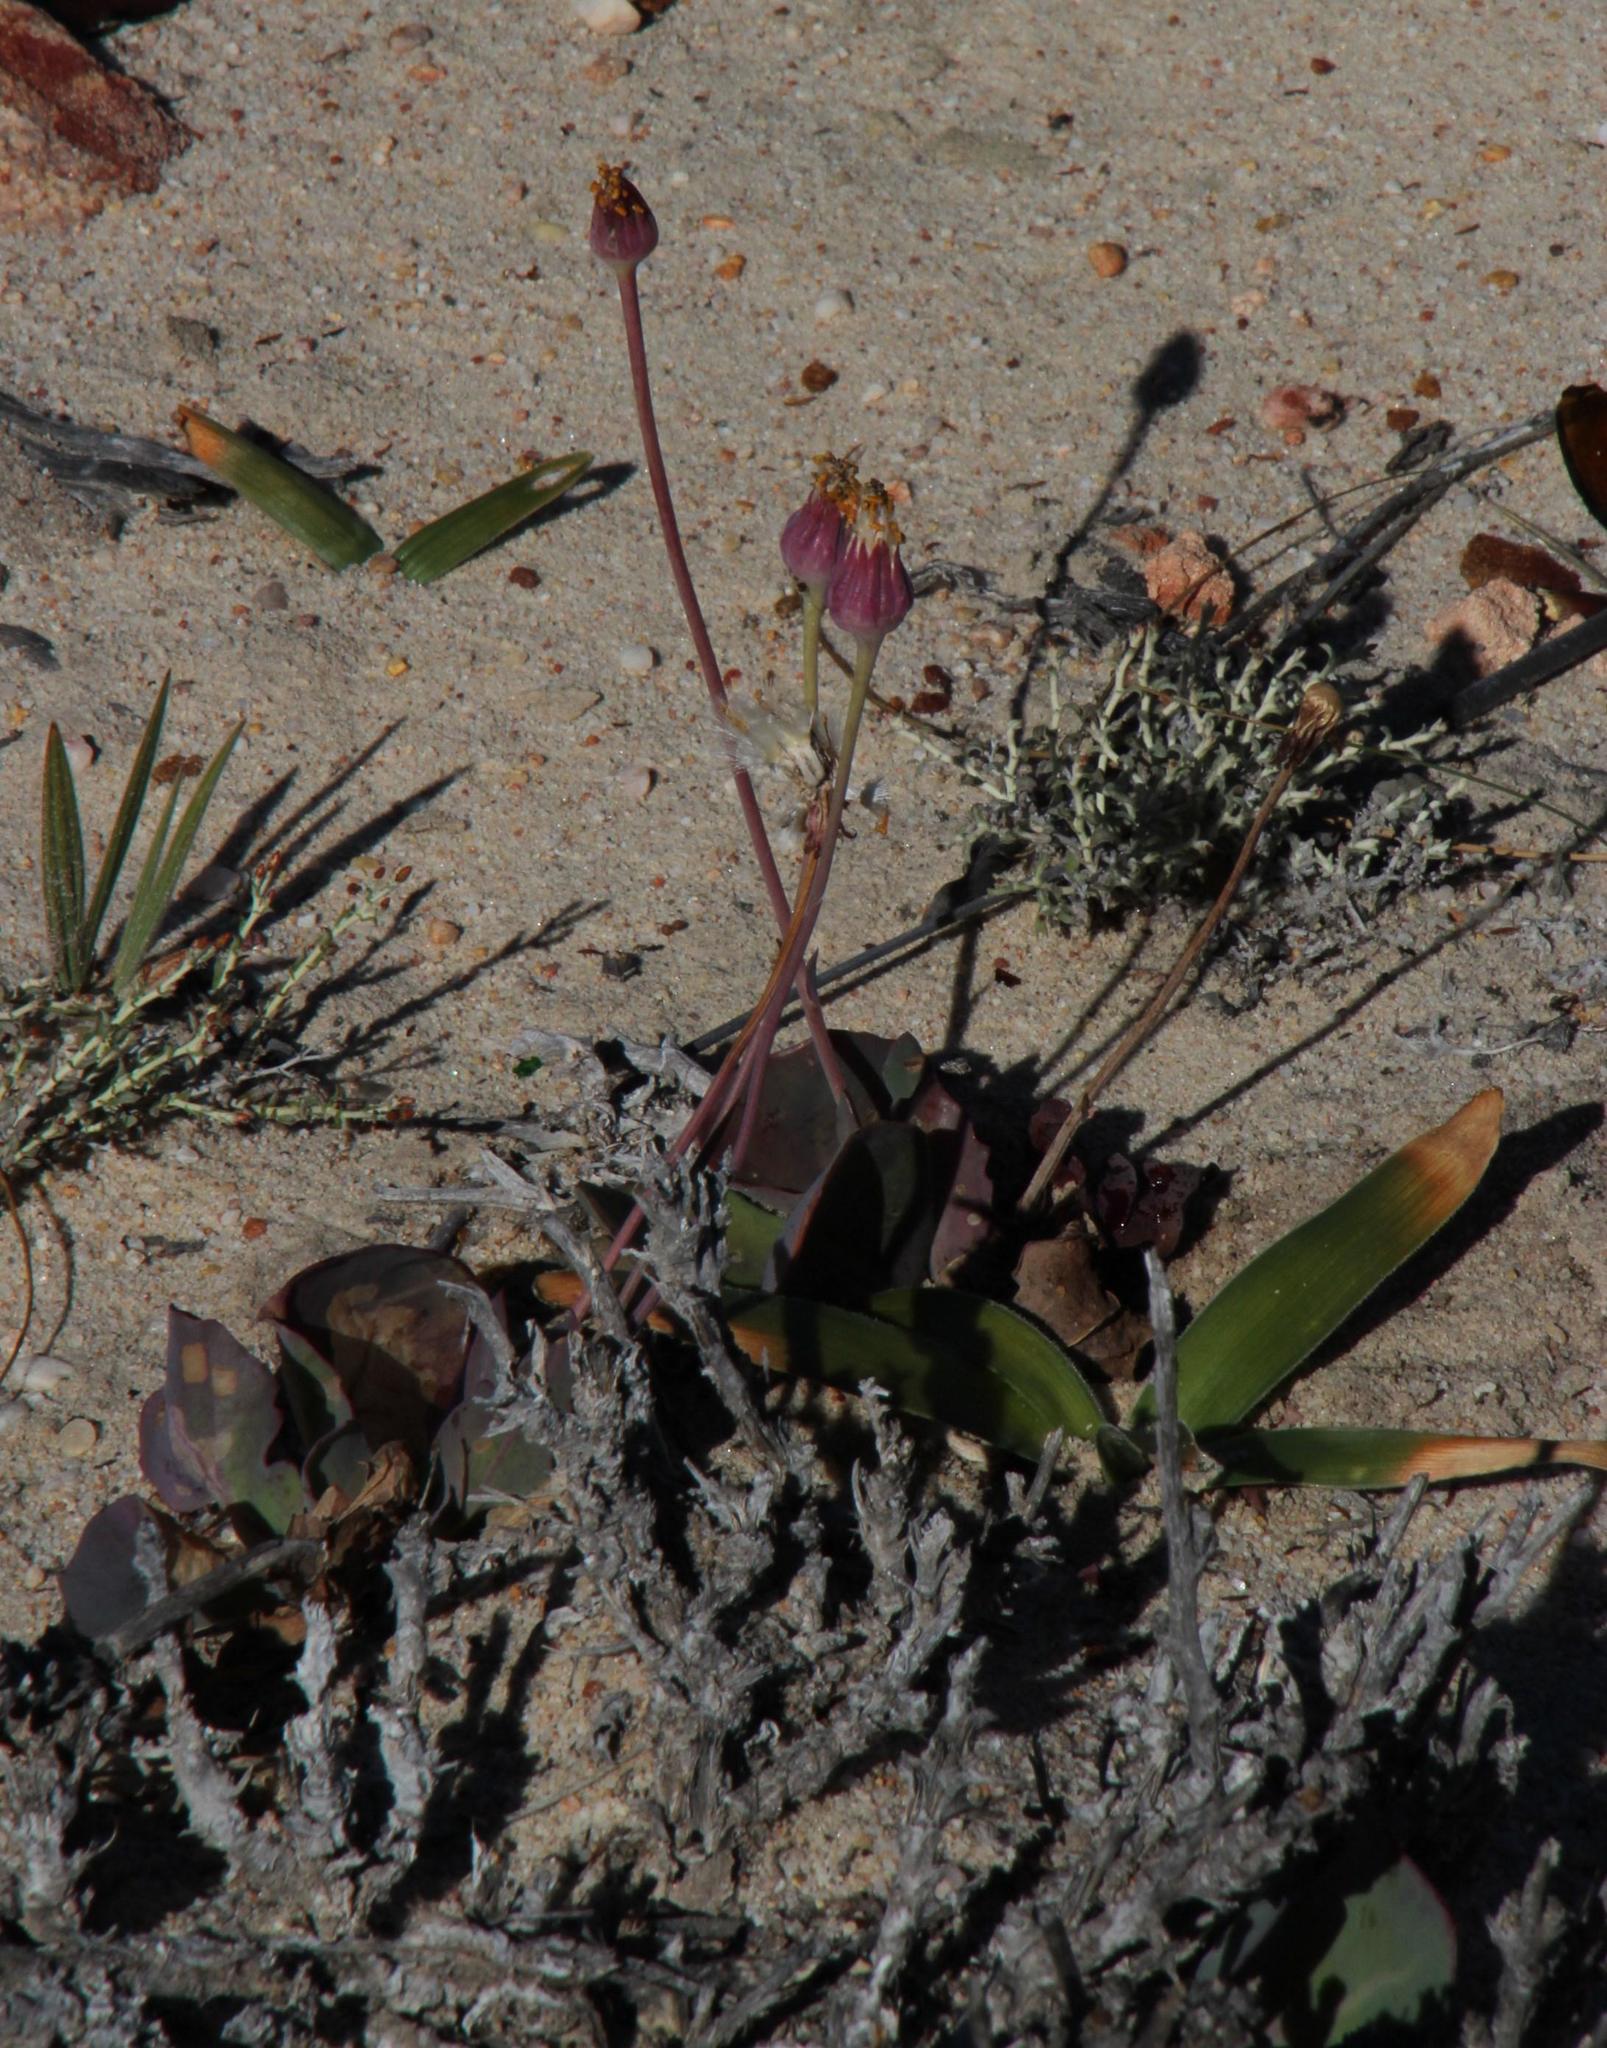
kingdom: Plantae
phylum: Tracheophyta
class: Magnoliopsida
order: Asterales
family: Asteraceae
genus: Othonna
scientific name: Othonna petiolaris
